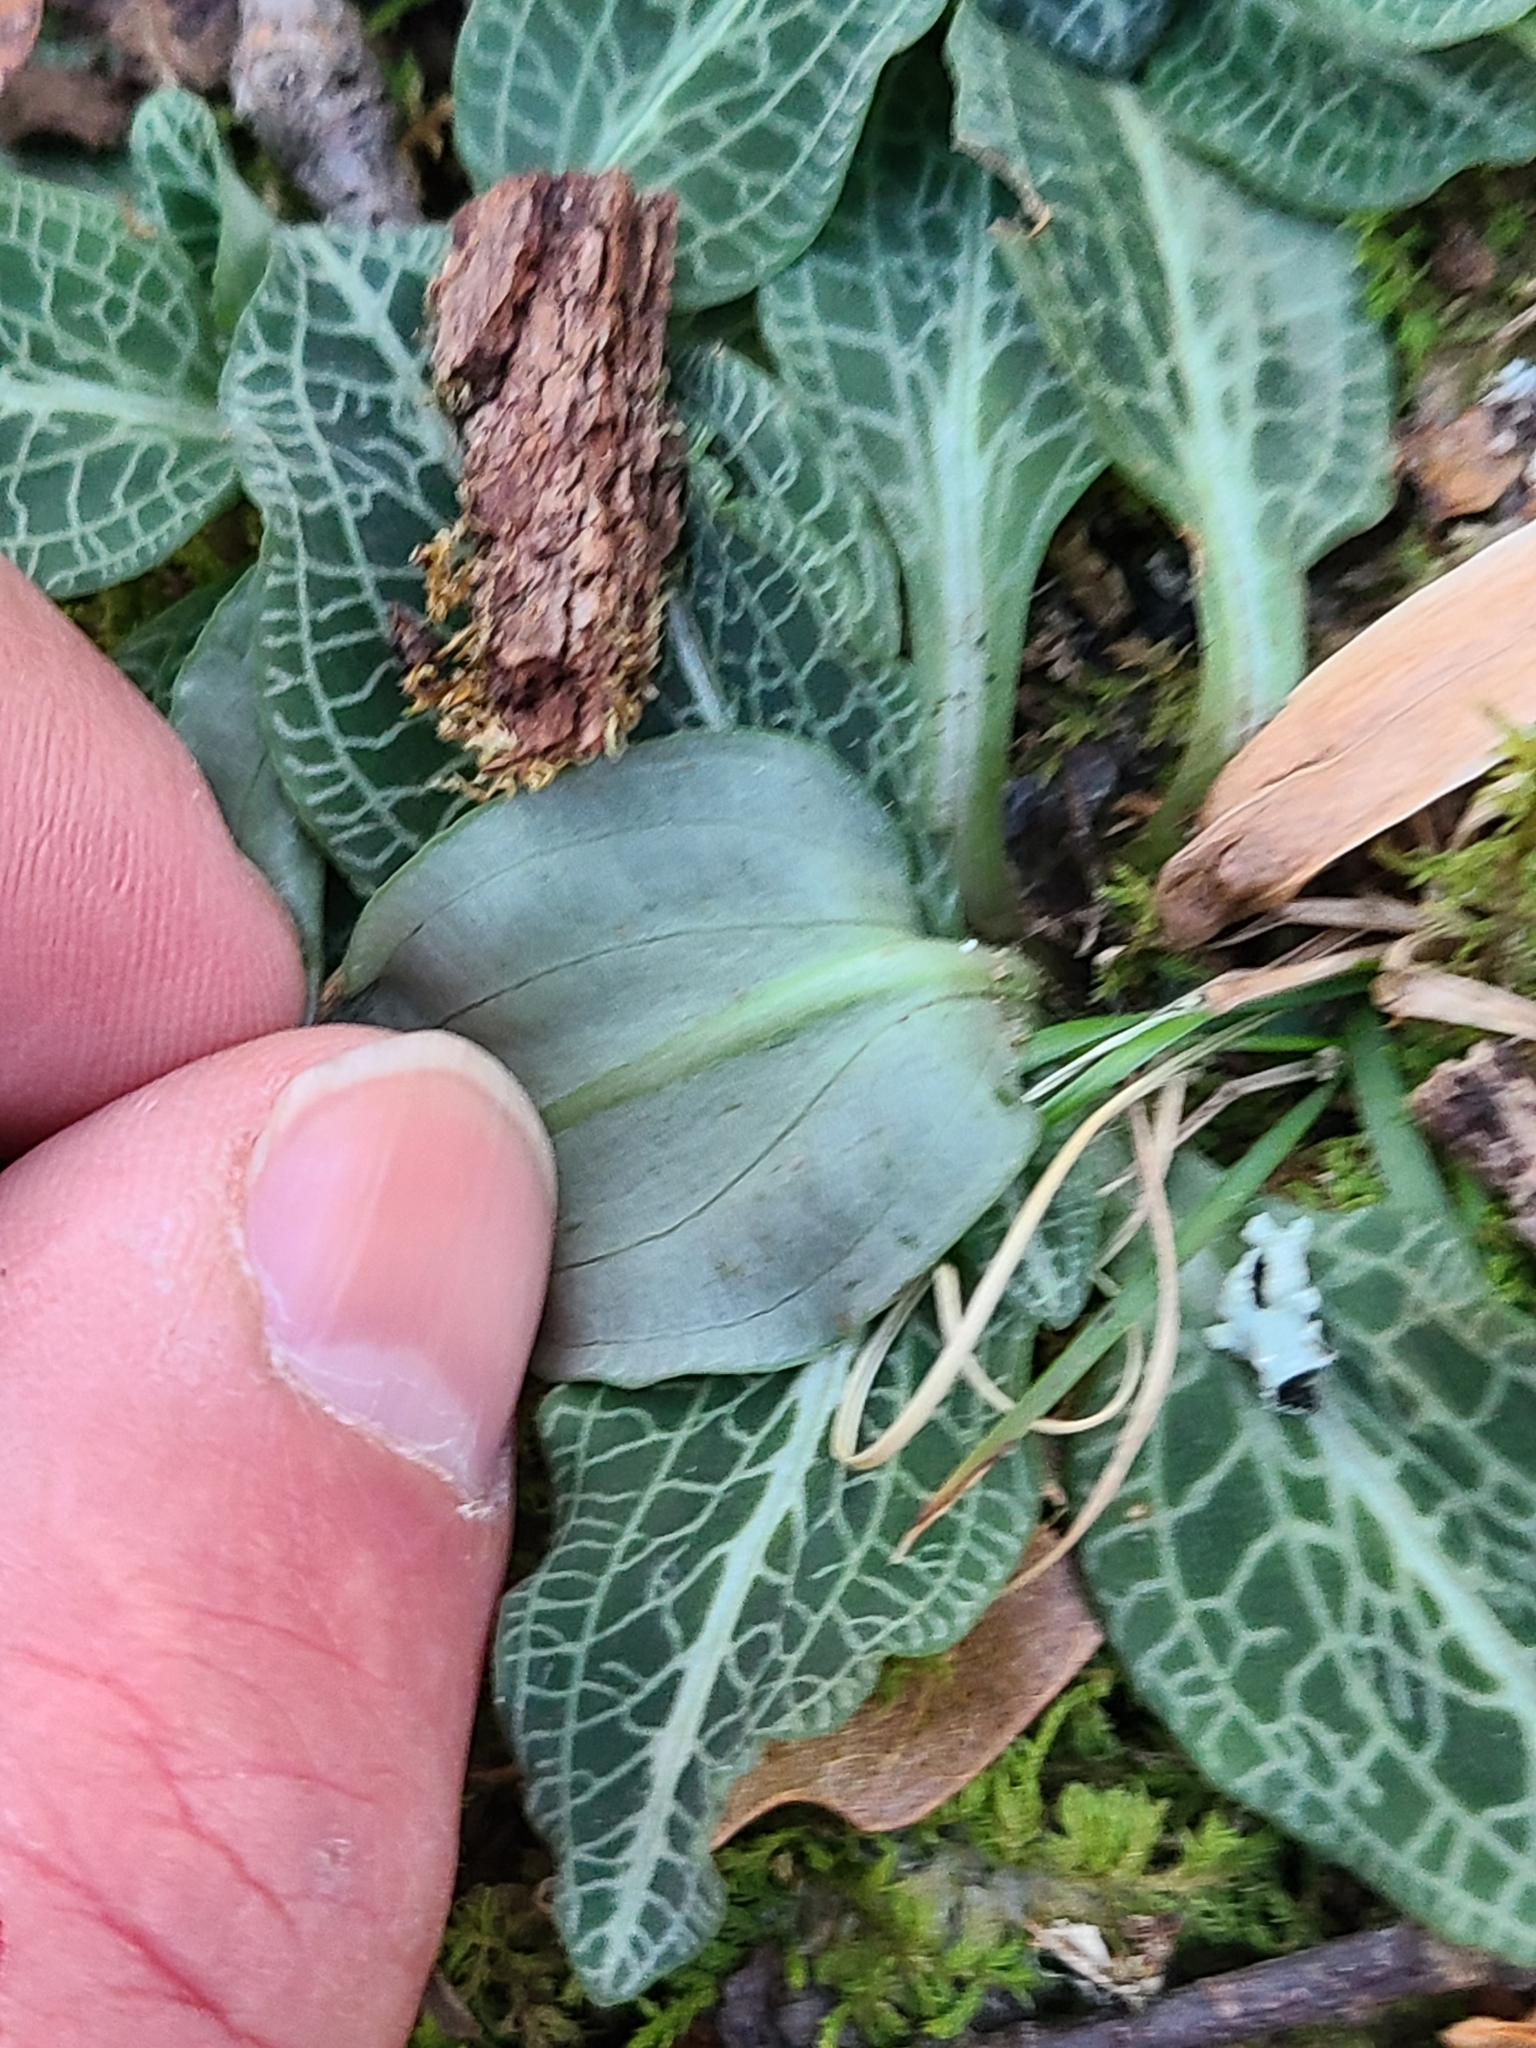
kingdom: Plantae
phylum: Tracheophyta
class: Liliopsida
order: Asparagales
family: Orchidaceae
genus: Goodyera
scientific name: Goodyera pubescens
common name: Downy rattlesnake-plantain
